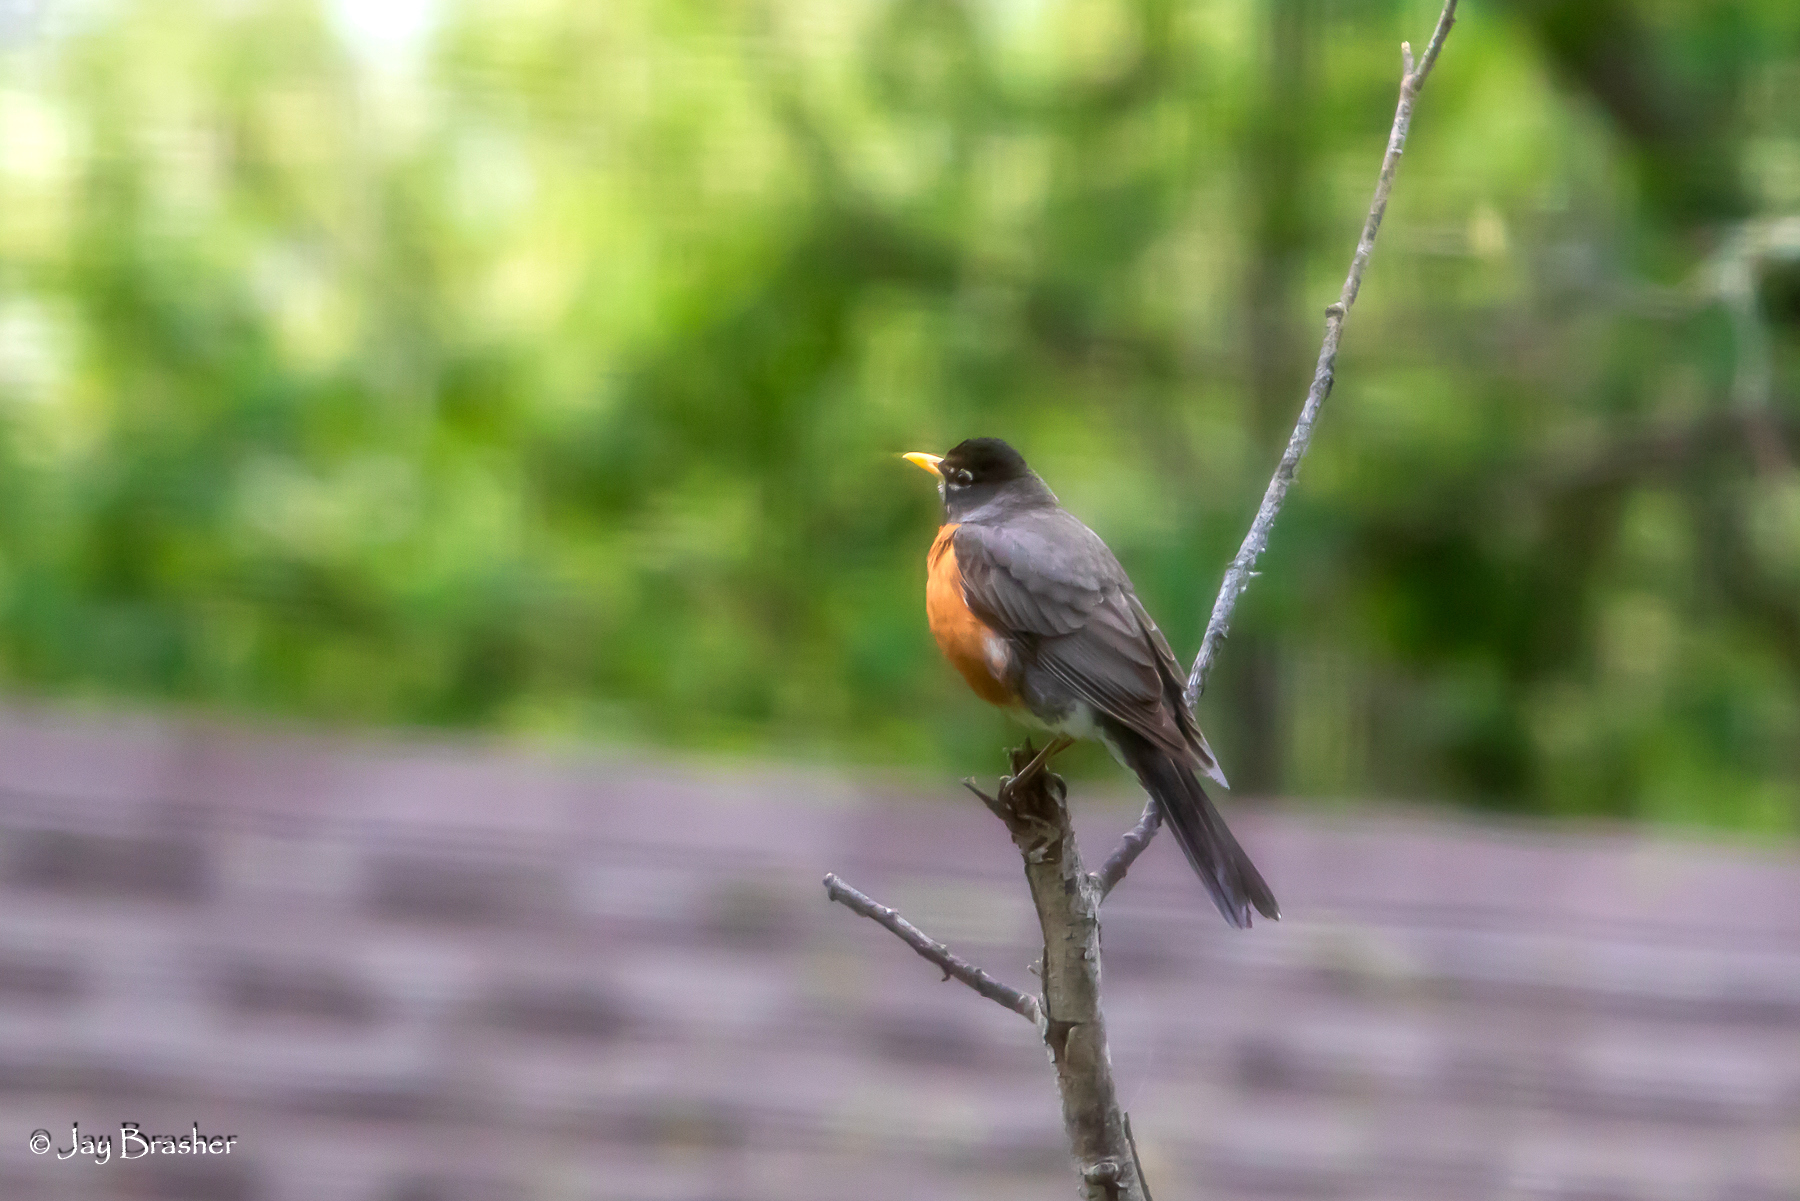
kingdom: Animalia
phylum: Chordata
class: Aves
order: Passeriformes
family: Turdidae
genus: Turdus
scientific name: Turdus migratorius
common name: American robin
